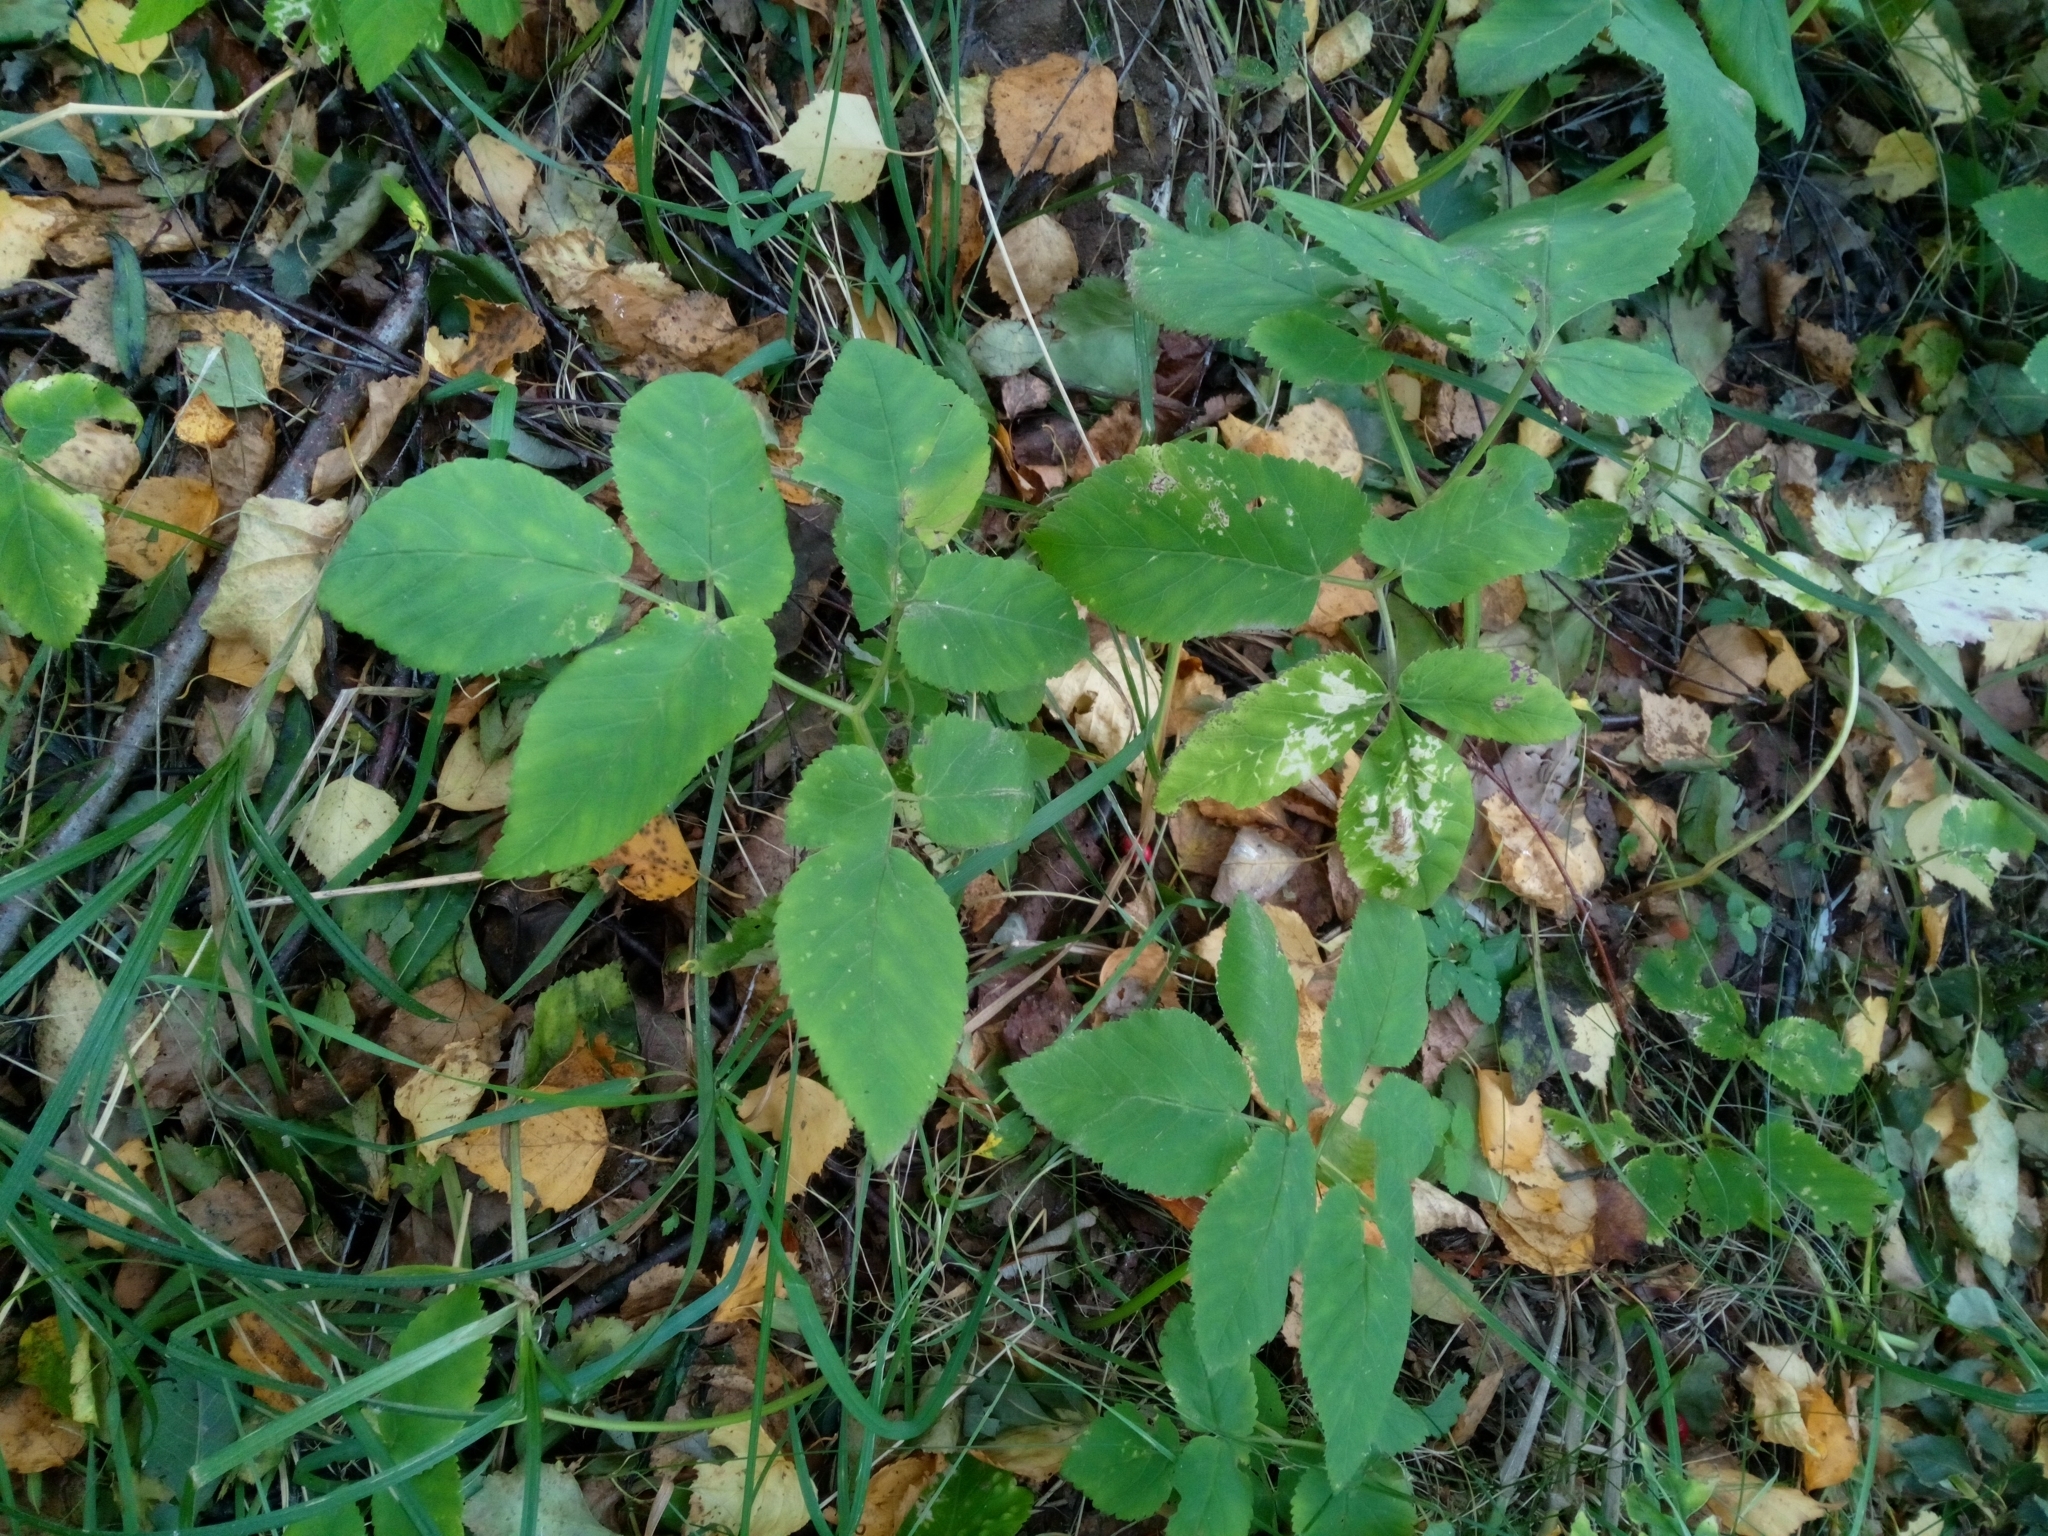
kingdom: Plantae
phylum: Tracheophyta
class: Magnoliopsida
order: Apiales
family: Apiaceae
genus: Aegopodium
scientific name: Aegopodium podagraria
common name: Ground-elder
